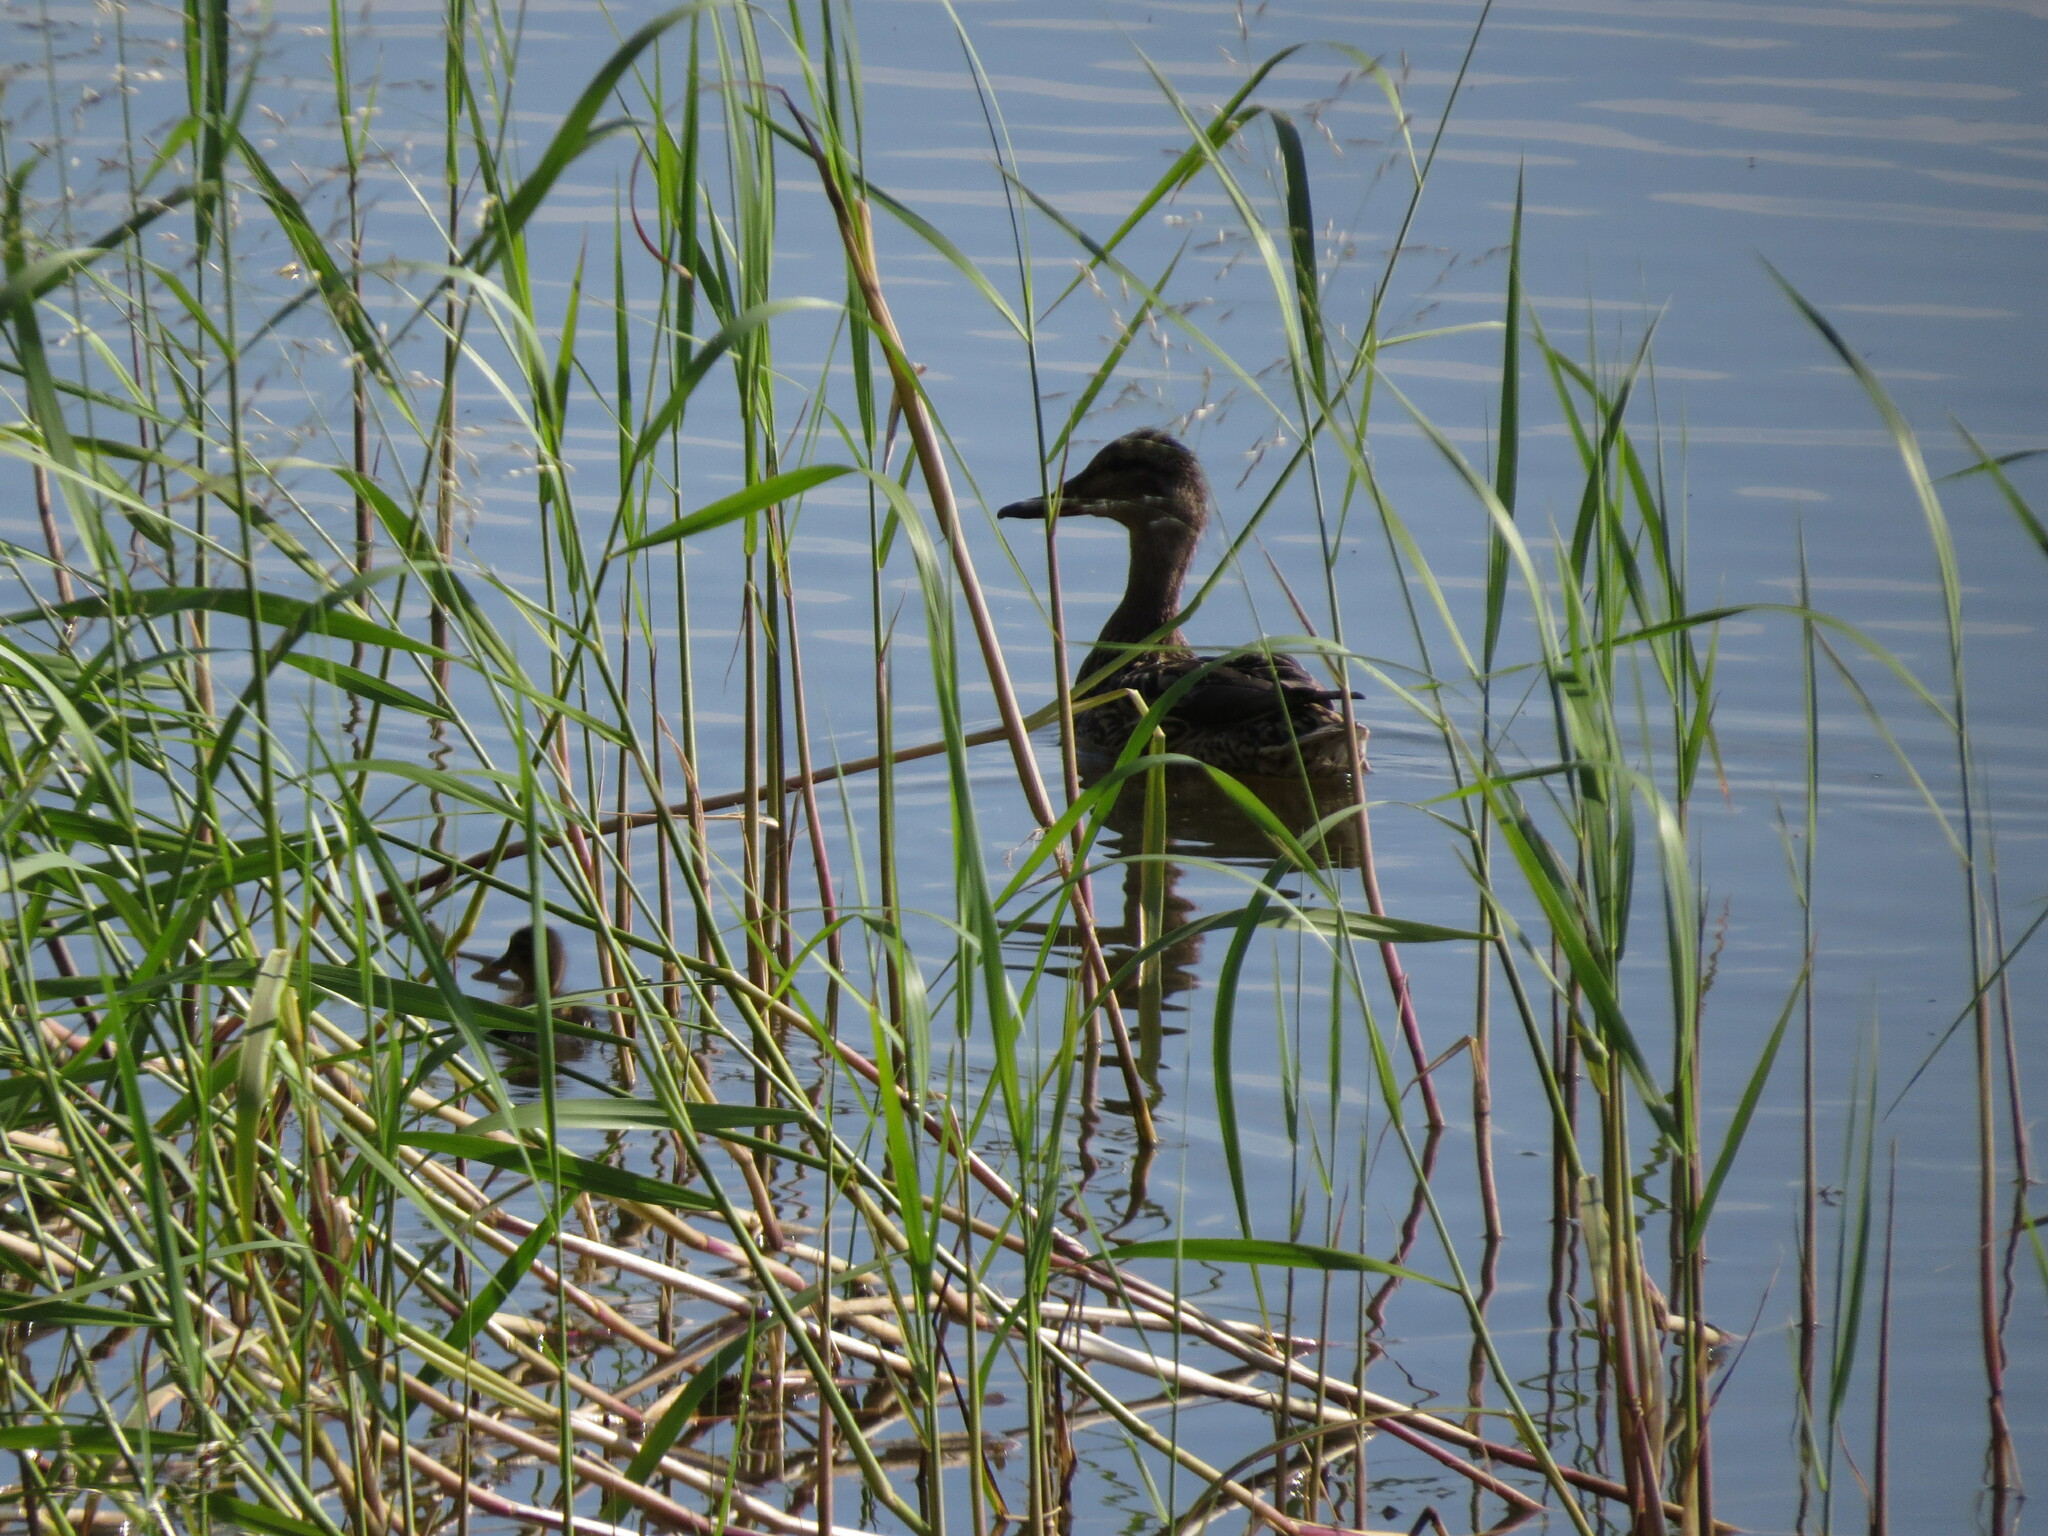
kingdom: Animalia
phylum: Chordata
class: Aves
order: Anseriformes
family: Anatidae
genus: Anas
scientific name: Anas platyrhynchos
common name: Mallard
